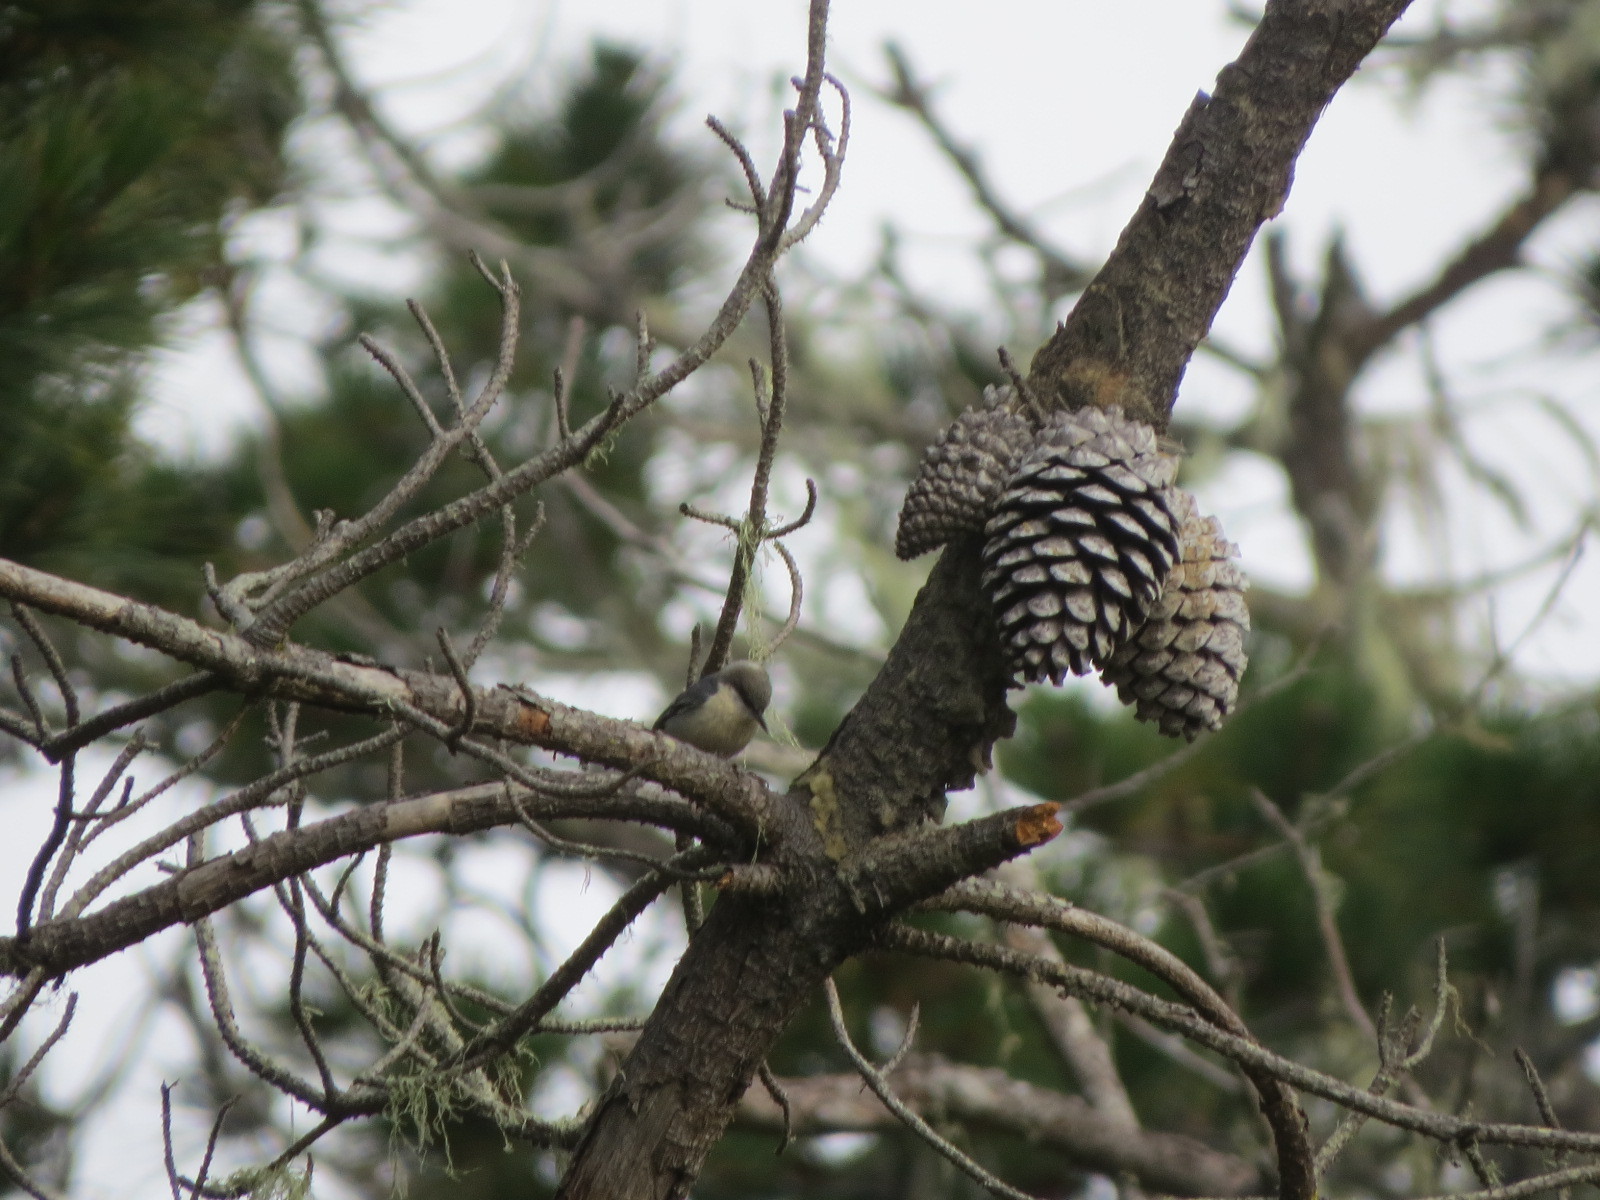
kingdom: Animalia
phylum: Chordata
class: Aves
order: Passeriformes
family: Sittidae
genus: Sitta
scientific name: Sitta pygmaea
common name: Pygmy nuthatch
